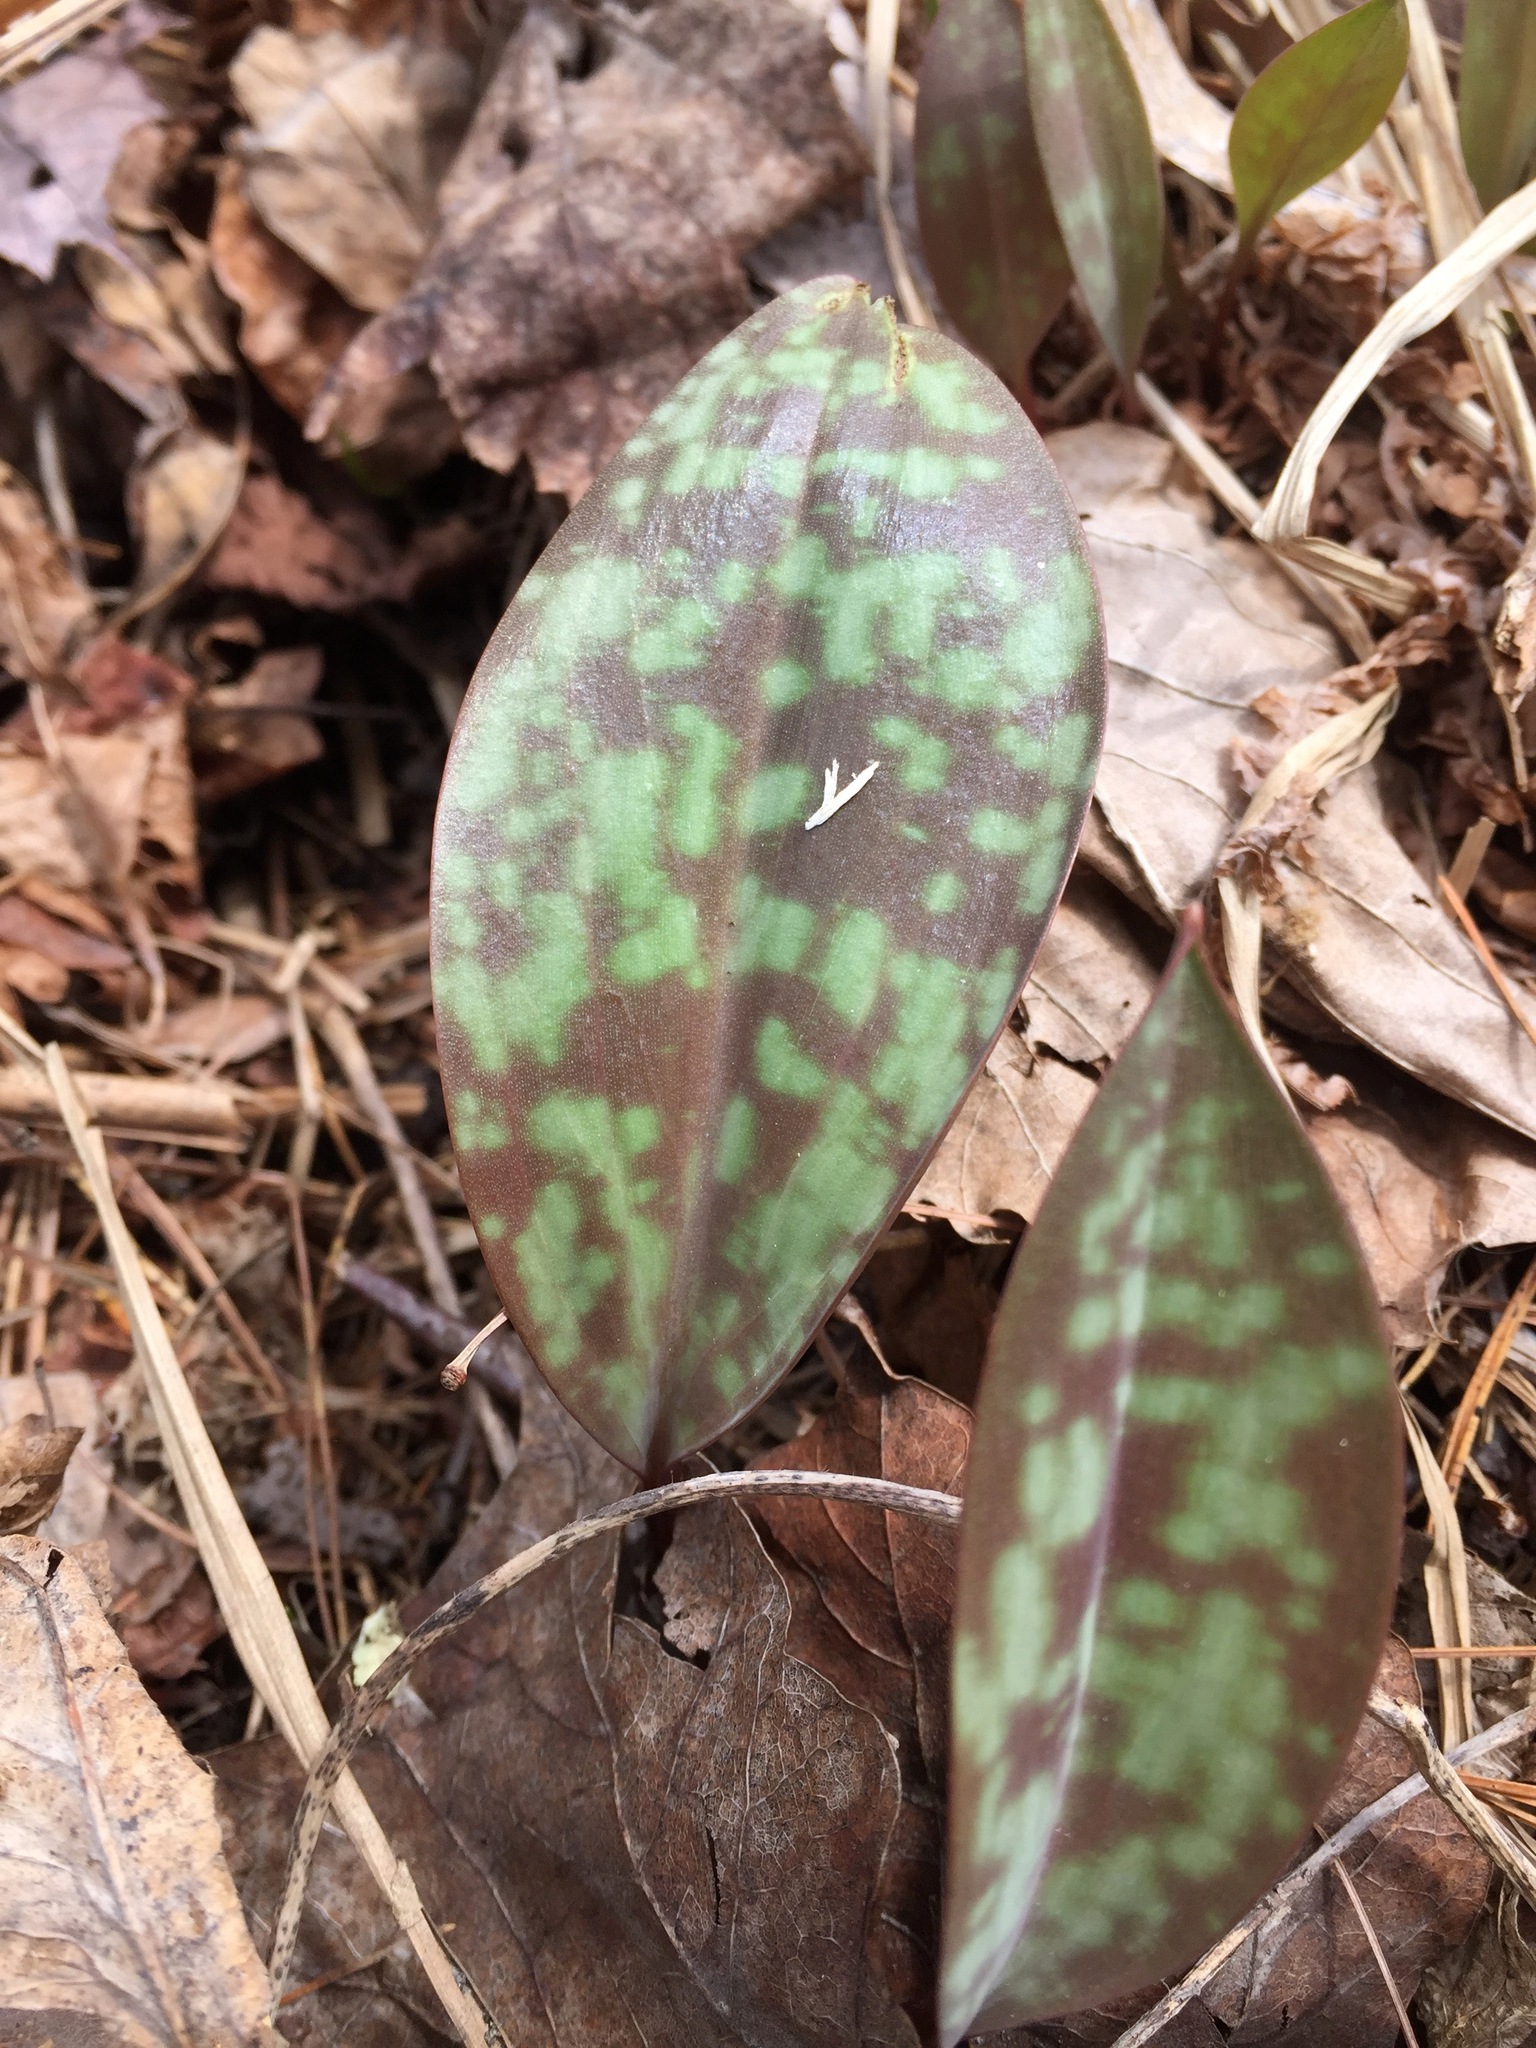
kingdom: Plantae
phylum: Tracheophyta
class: Liliopsida
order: Liliales
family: Liliaceae
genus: Erythronium
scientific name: Erythronium americanum
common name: Yellow adder's-tongue
